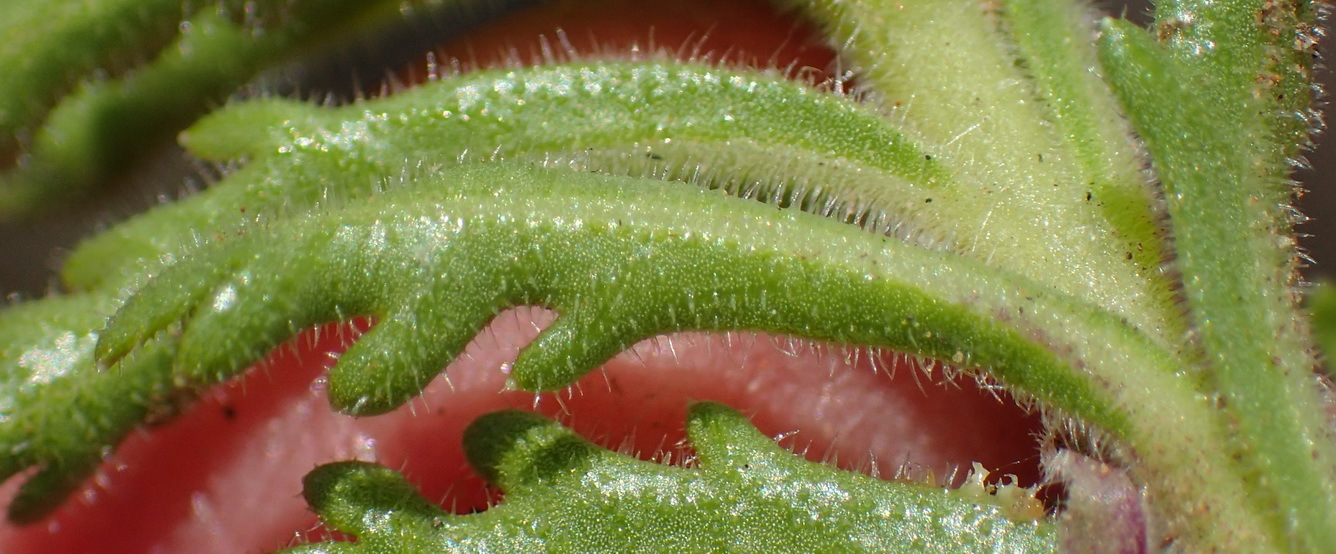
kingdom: Plantae
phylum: Tracheophyta
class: Magnoliopsida
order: Asterales
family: Campanulaceae
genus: Lobelia
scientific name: Lobelia tomentosa
